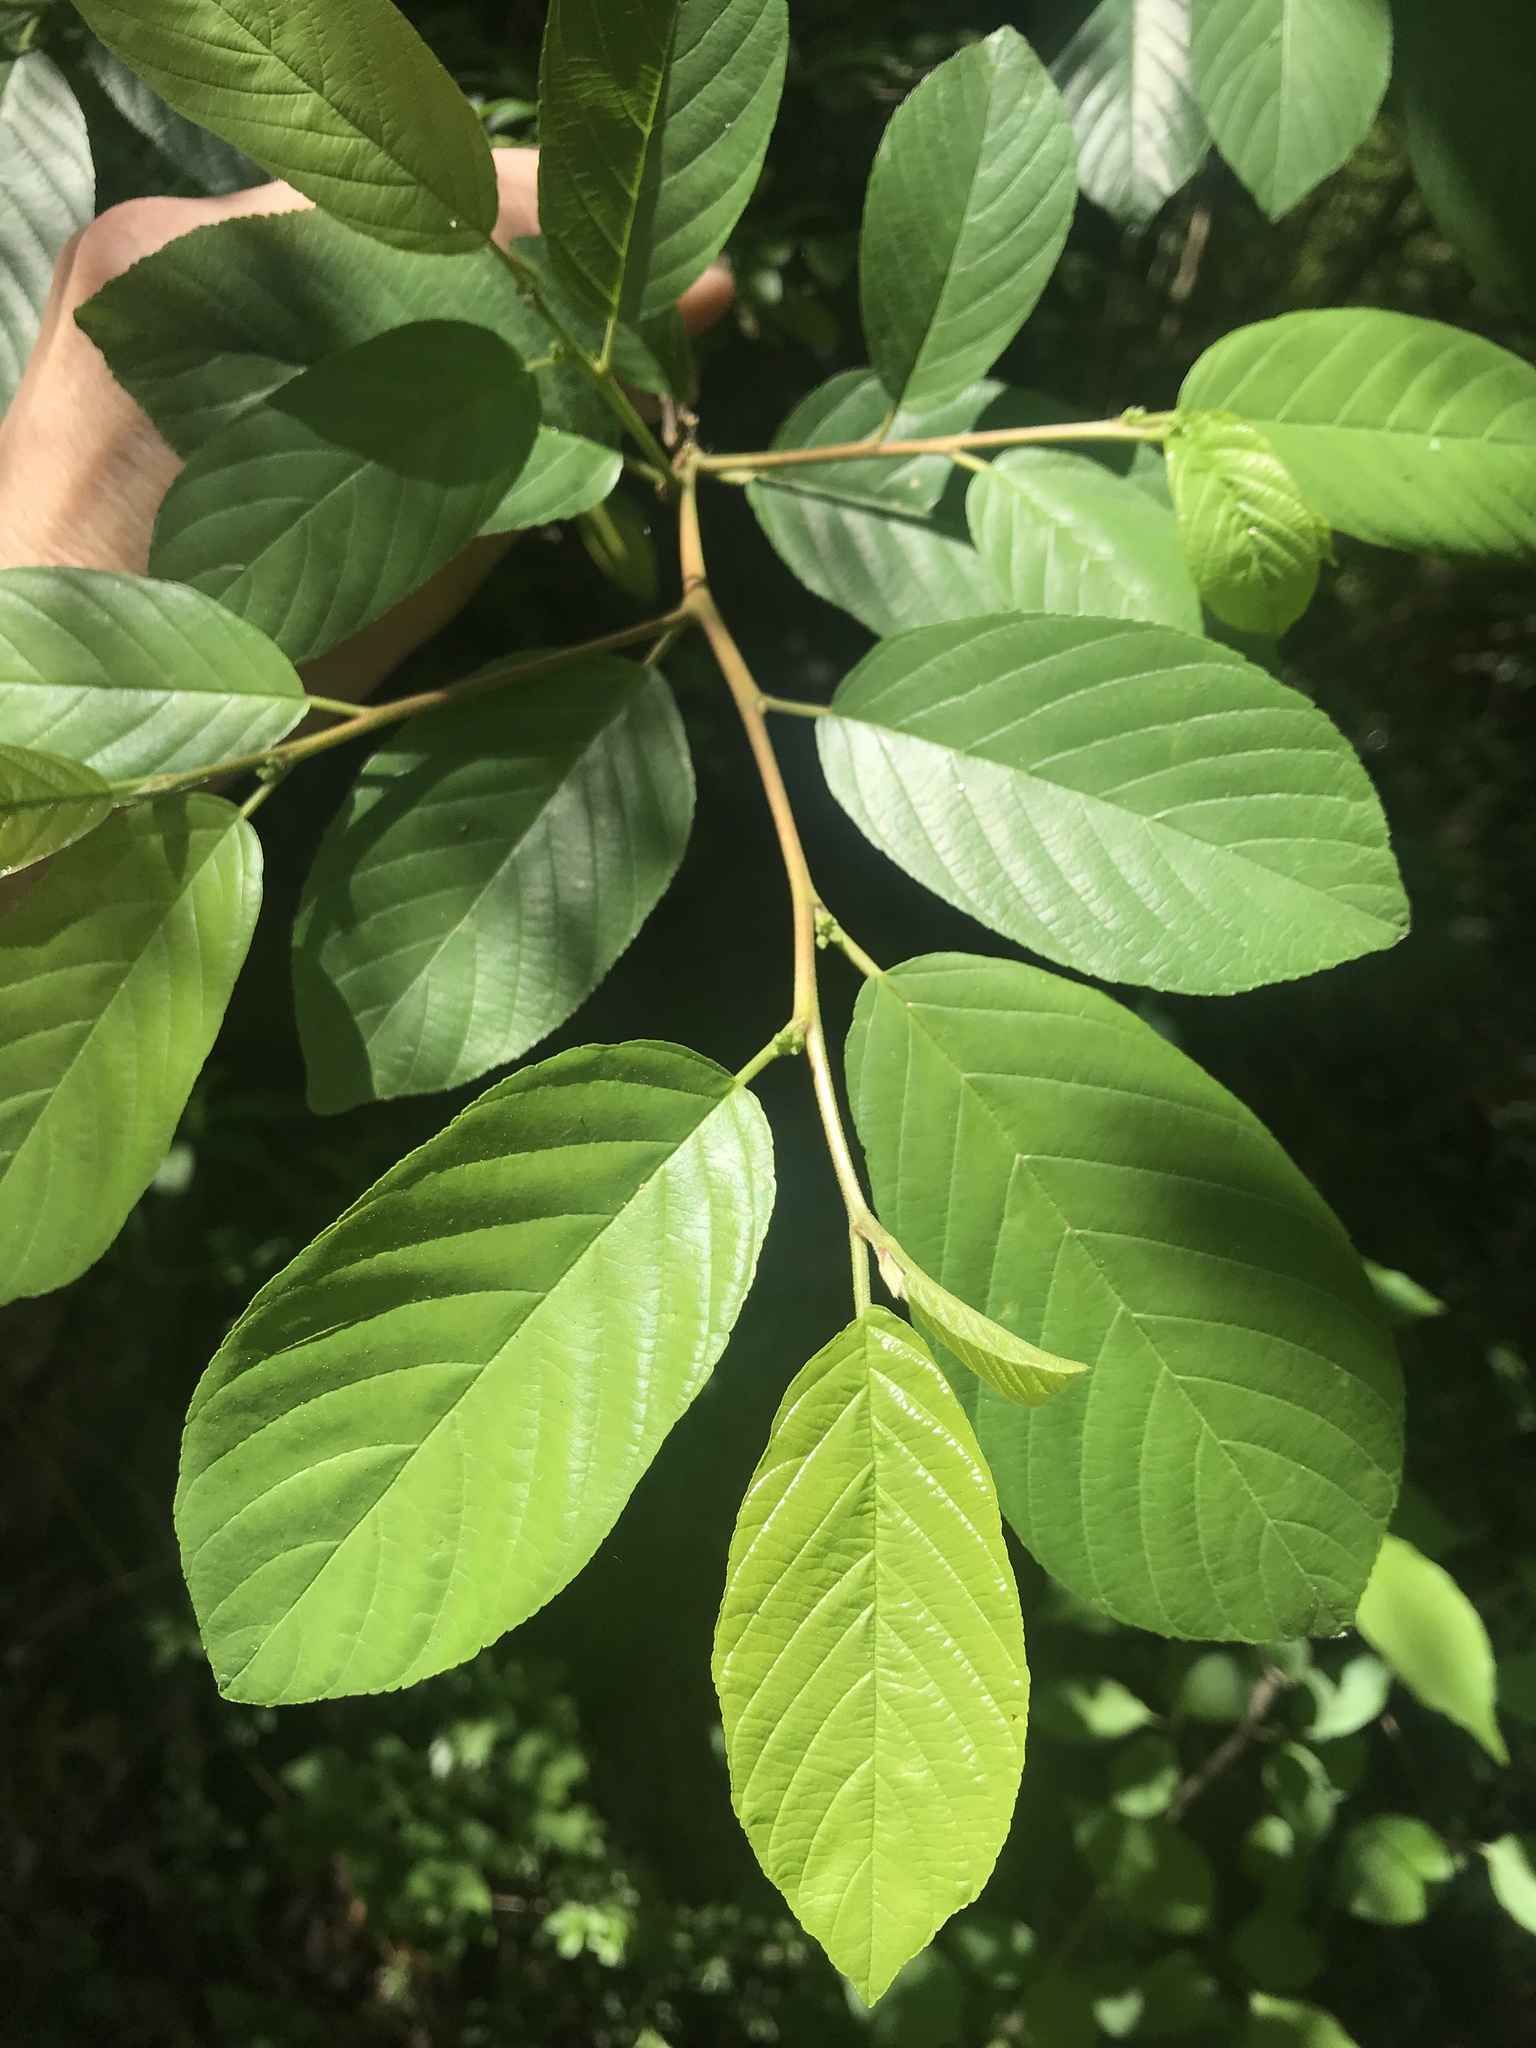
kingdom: Plantae
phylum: Tracheophyta
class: Magnoliopsida
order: Rosales
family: Rhamnaceae
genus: Frangula
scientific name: Frangula caroliniana
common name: Carolina buckthorn
